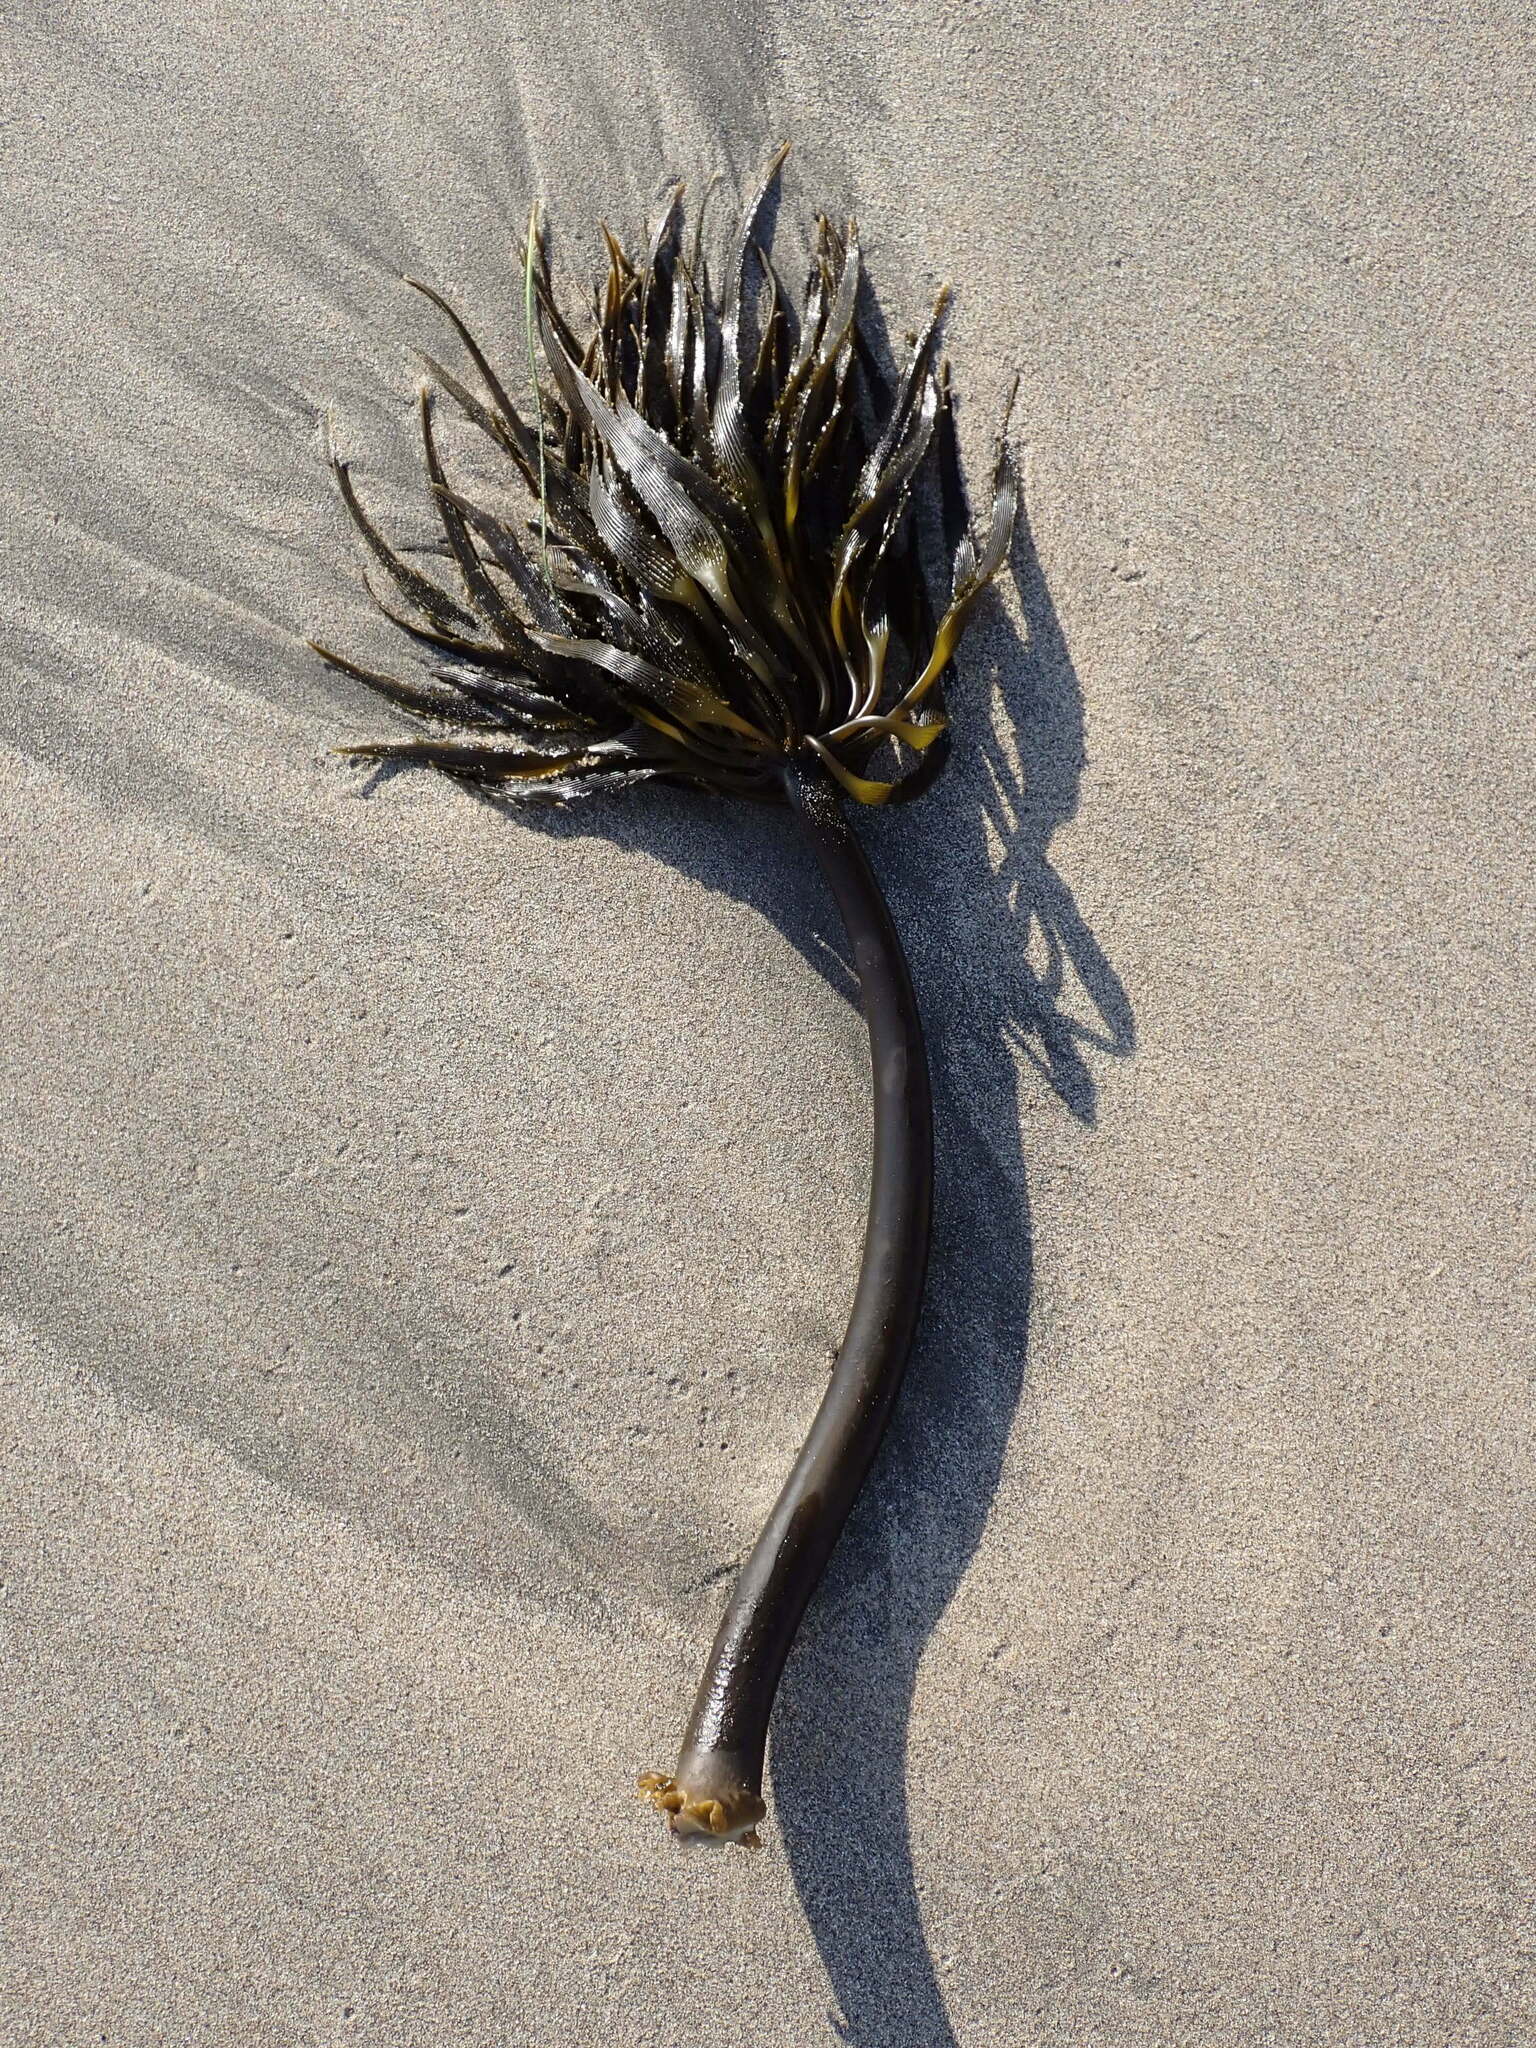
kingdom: Chromista
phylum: Ochrophyta
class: Phaeophyceae
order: Laminariales
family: Laminariaceae
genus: Postelsia
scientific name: Postelsia palmiformis
